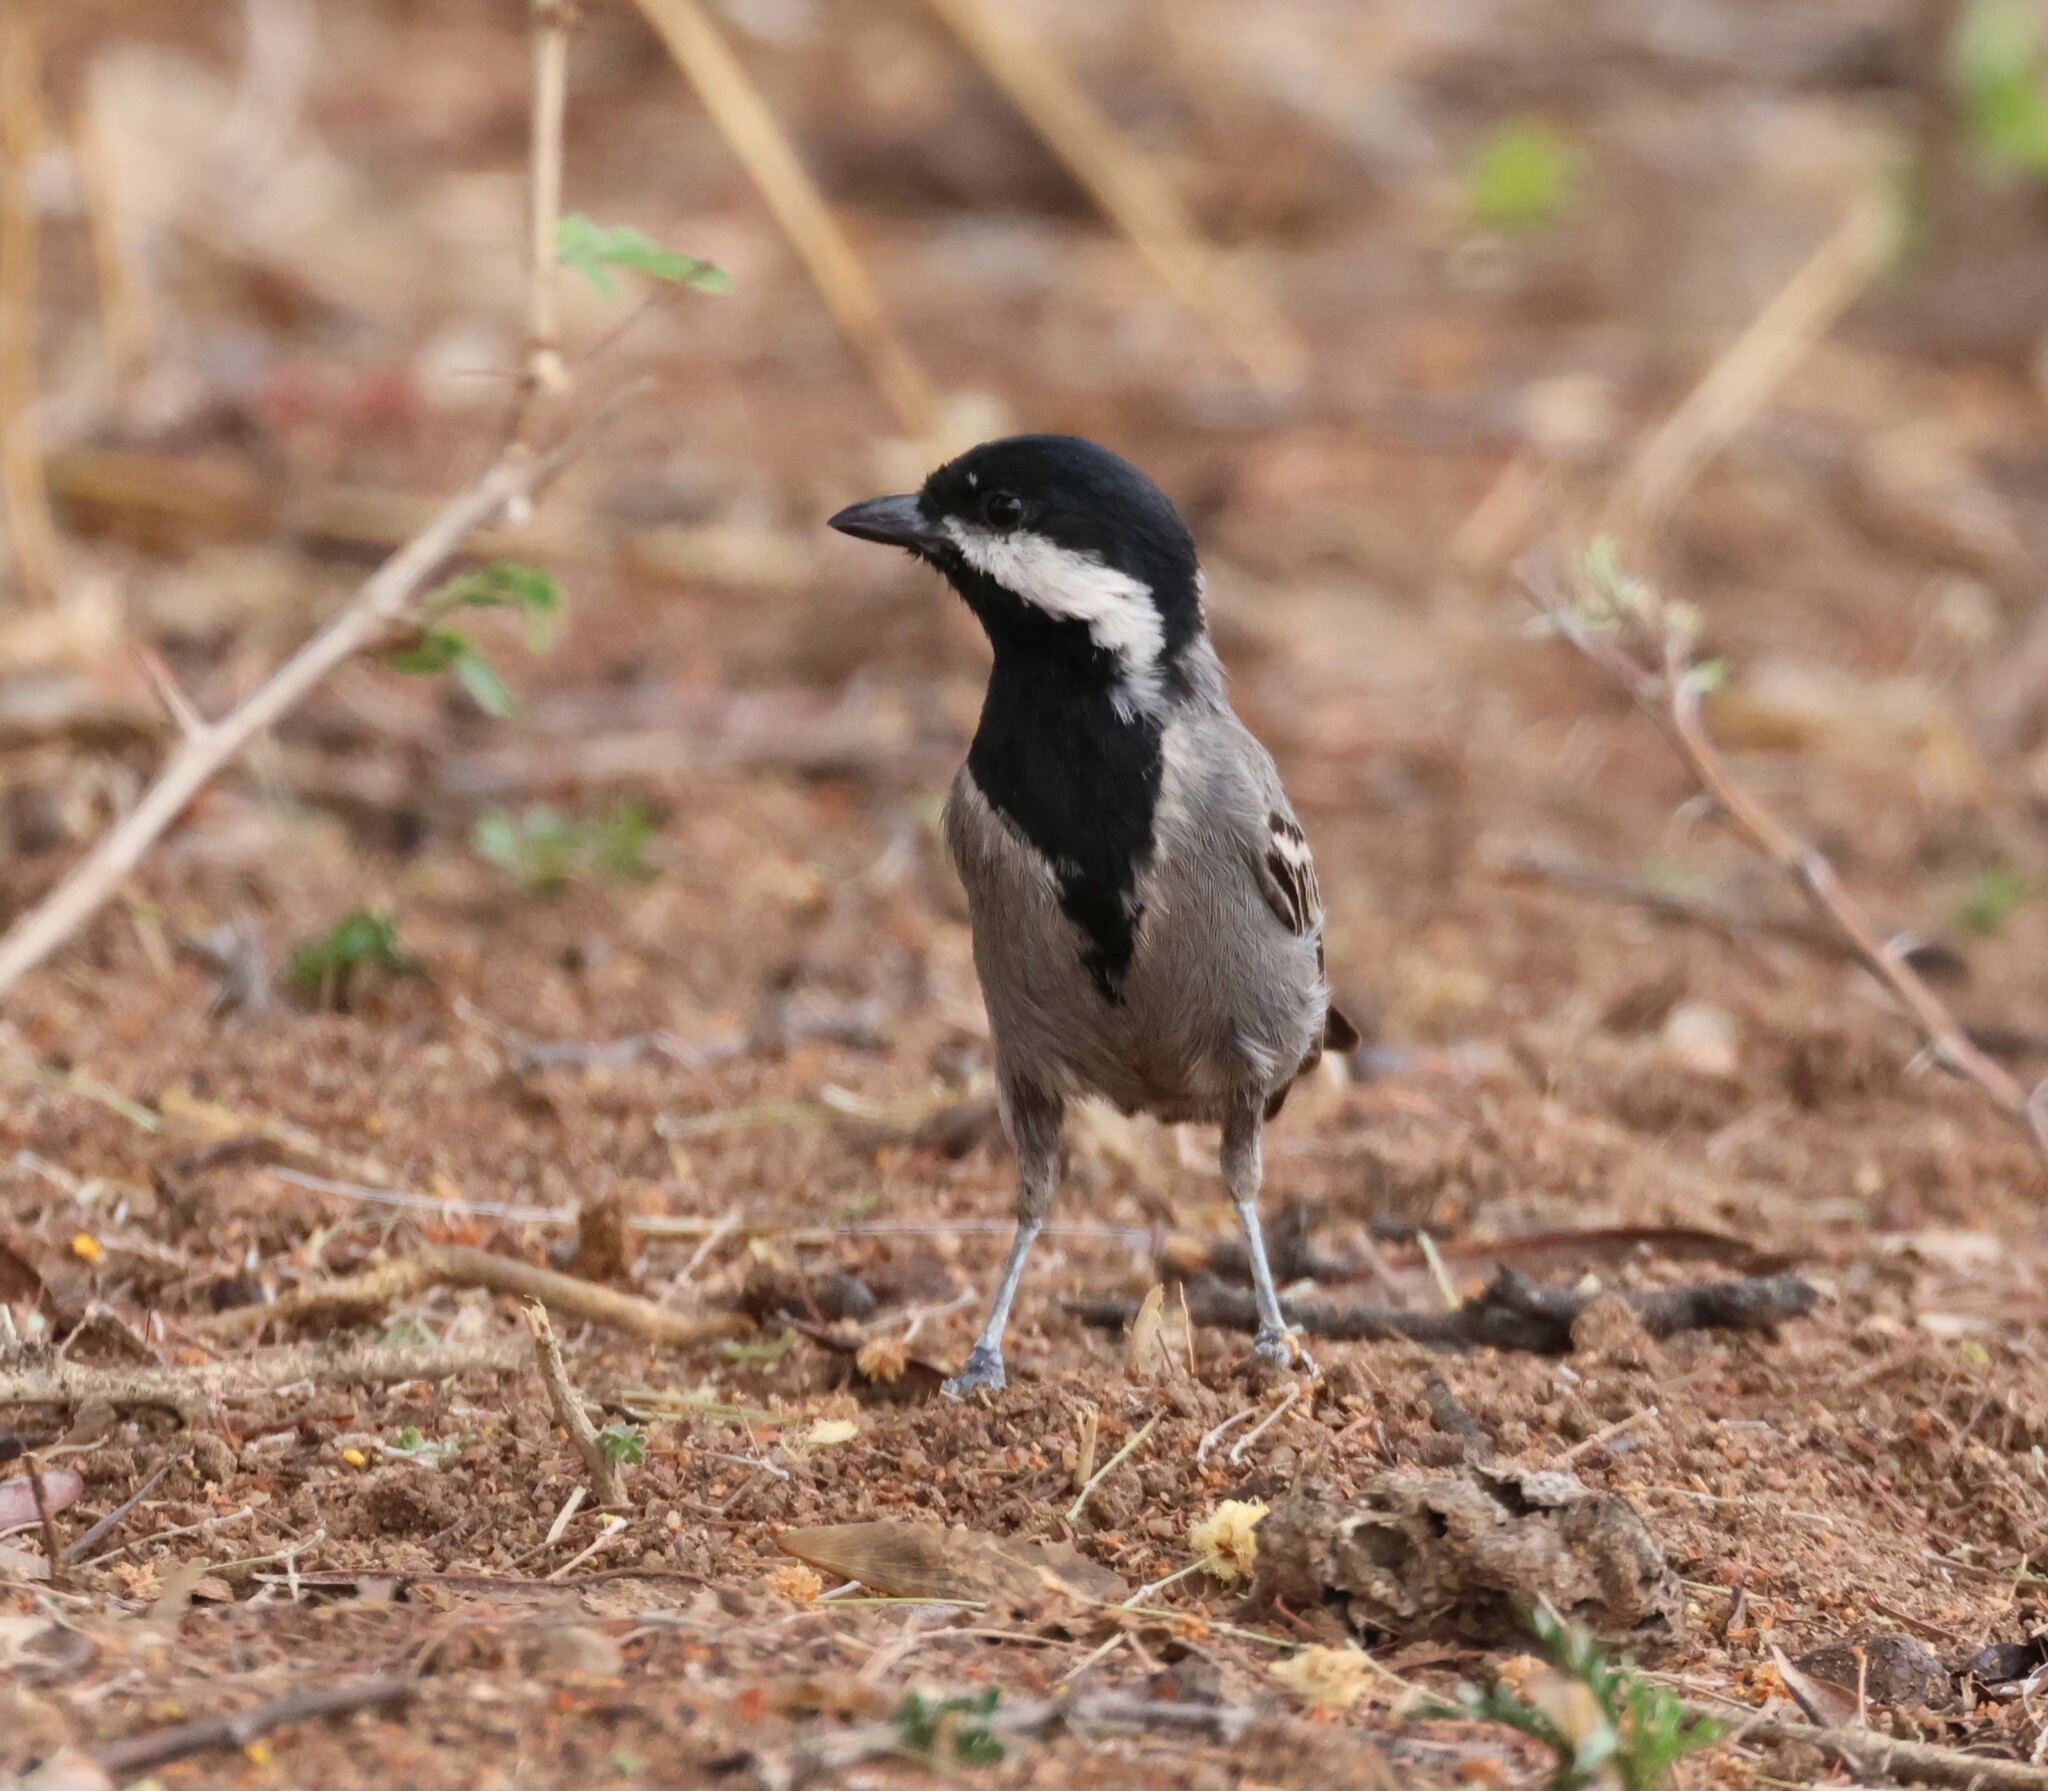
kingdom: Animalia
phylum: Chordata
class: Aves
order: Passeriformes
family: Paridae
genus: Parus
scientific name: Parus cinerascens
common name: Ashy tit
